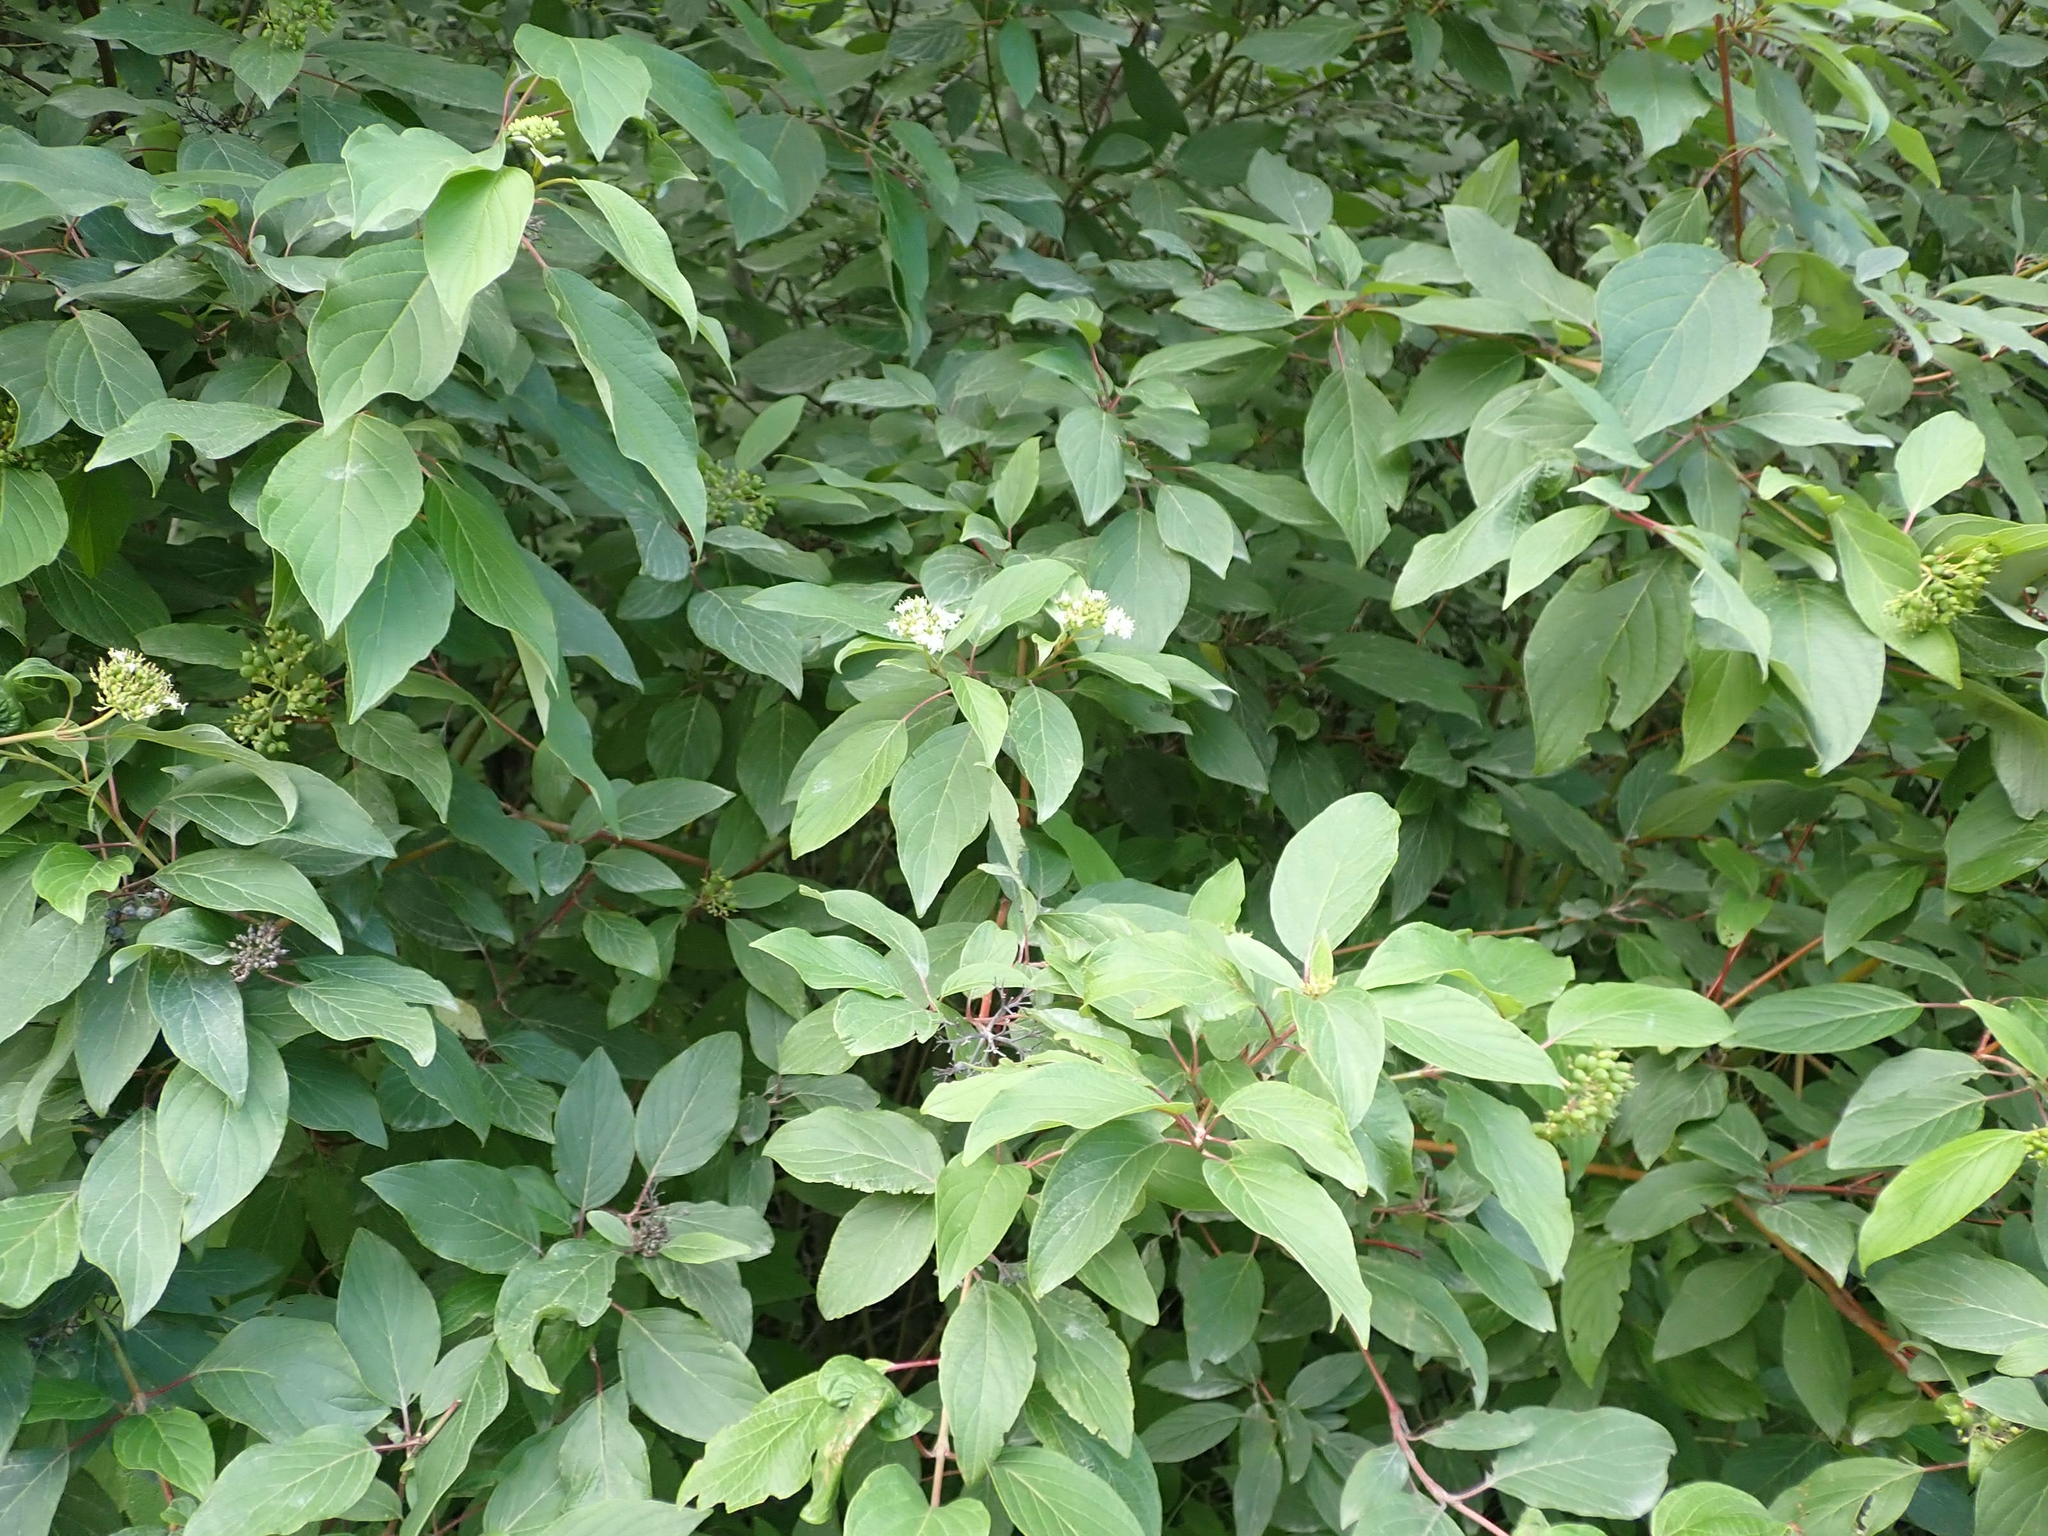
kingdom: Plantae
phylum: Tracheophyta
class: Magnoliopsida
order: Cornales
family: Cornaceae
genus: Cornus
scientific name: Cornus sericea
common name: Red-osier dogwood
